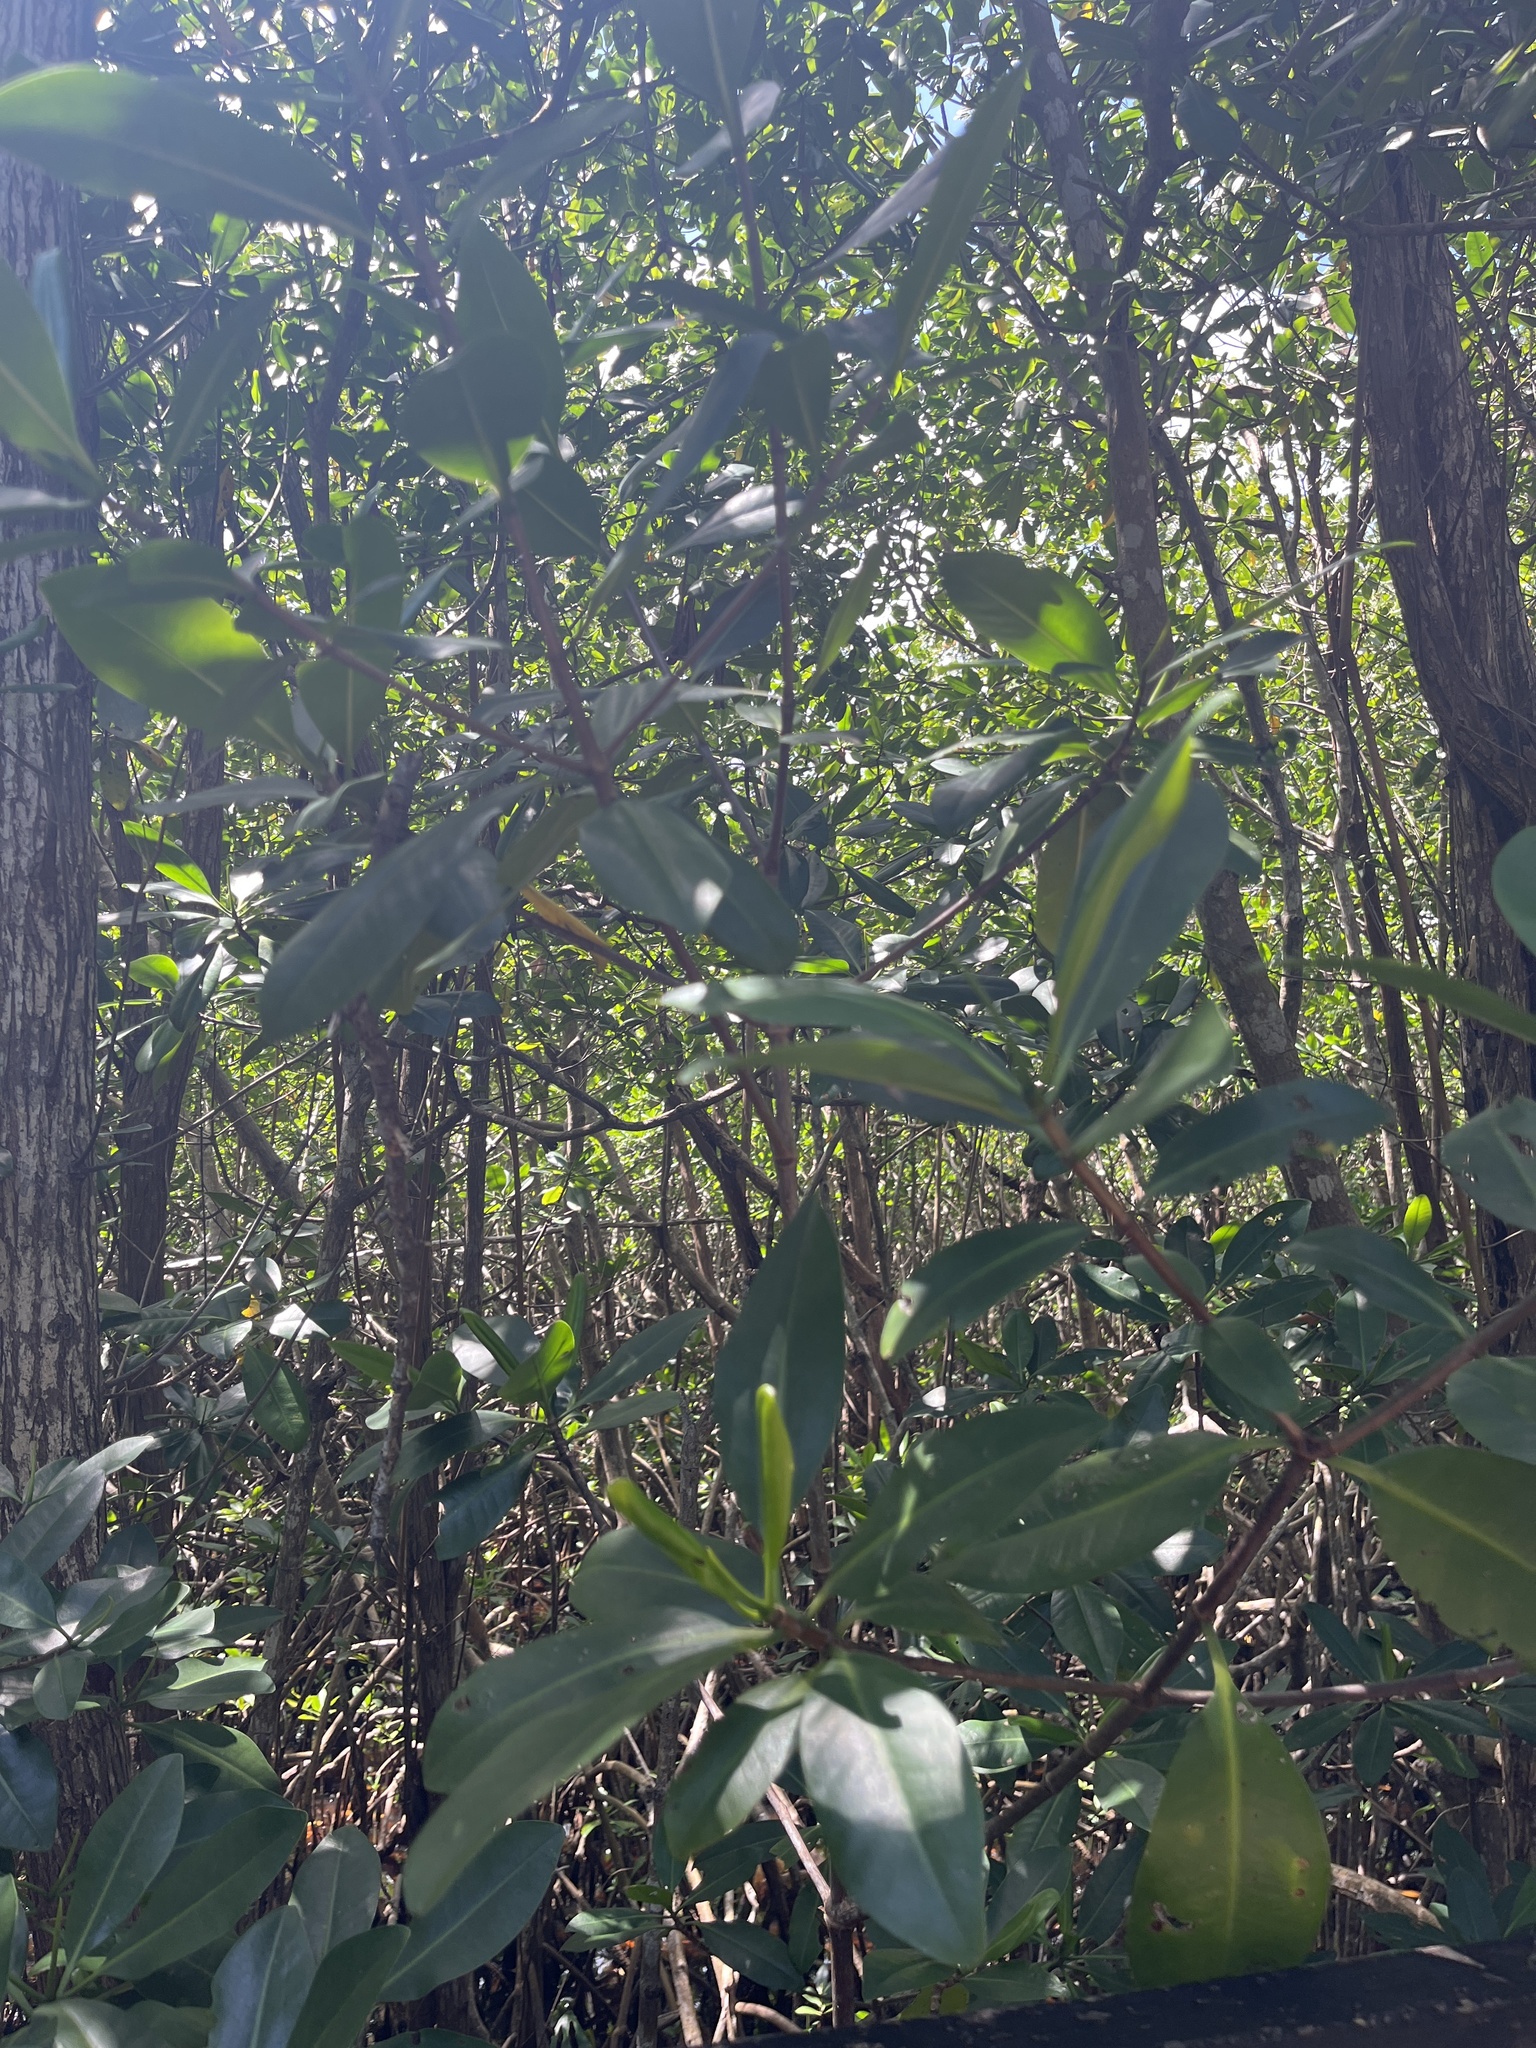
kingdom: Plantae
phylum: Tracheophyta
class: Magnoliopsida
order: Malpighiales
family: Rhizophoraceae
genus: Rhizophora
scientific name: Rhizophora mangle
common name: Red mangrove
